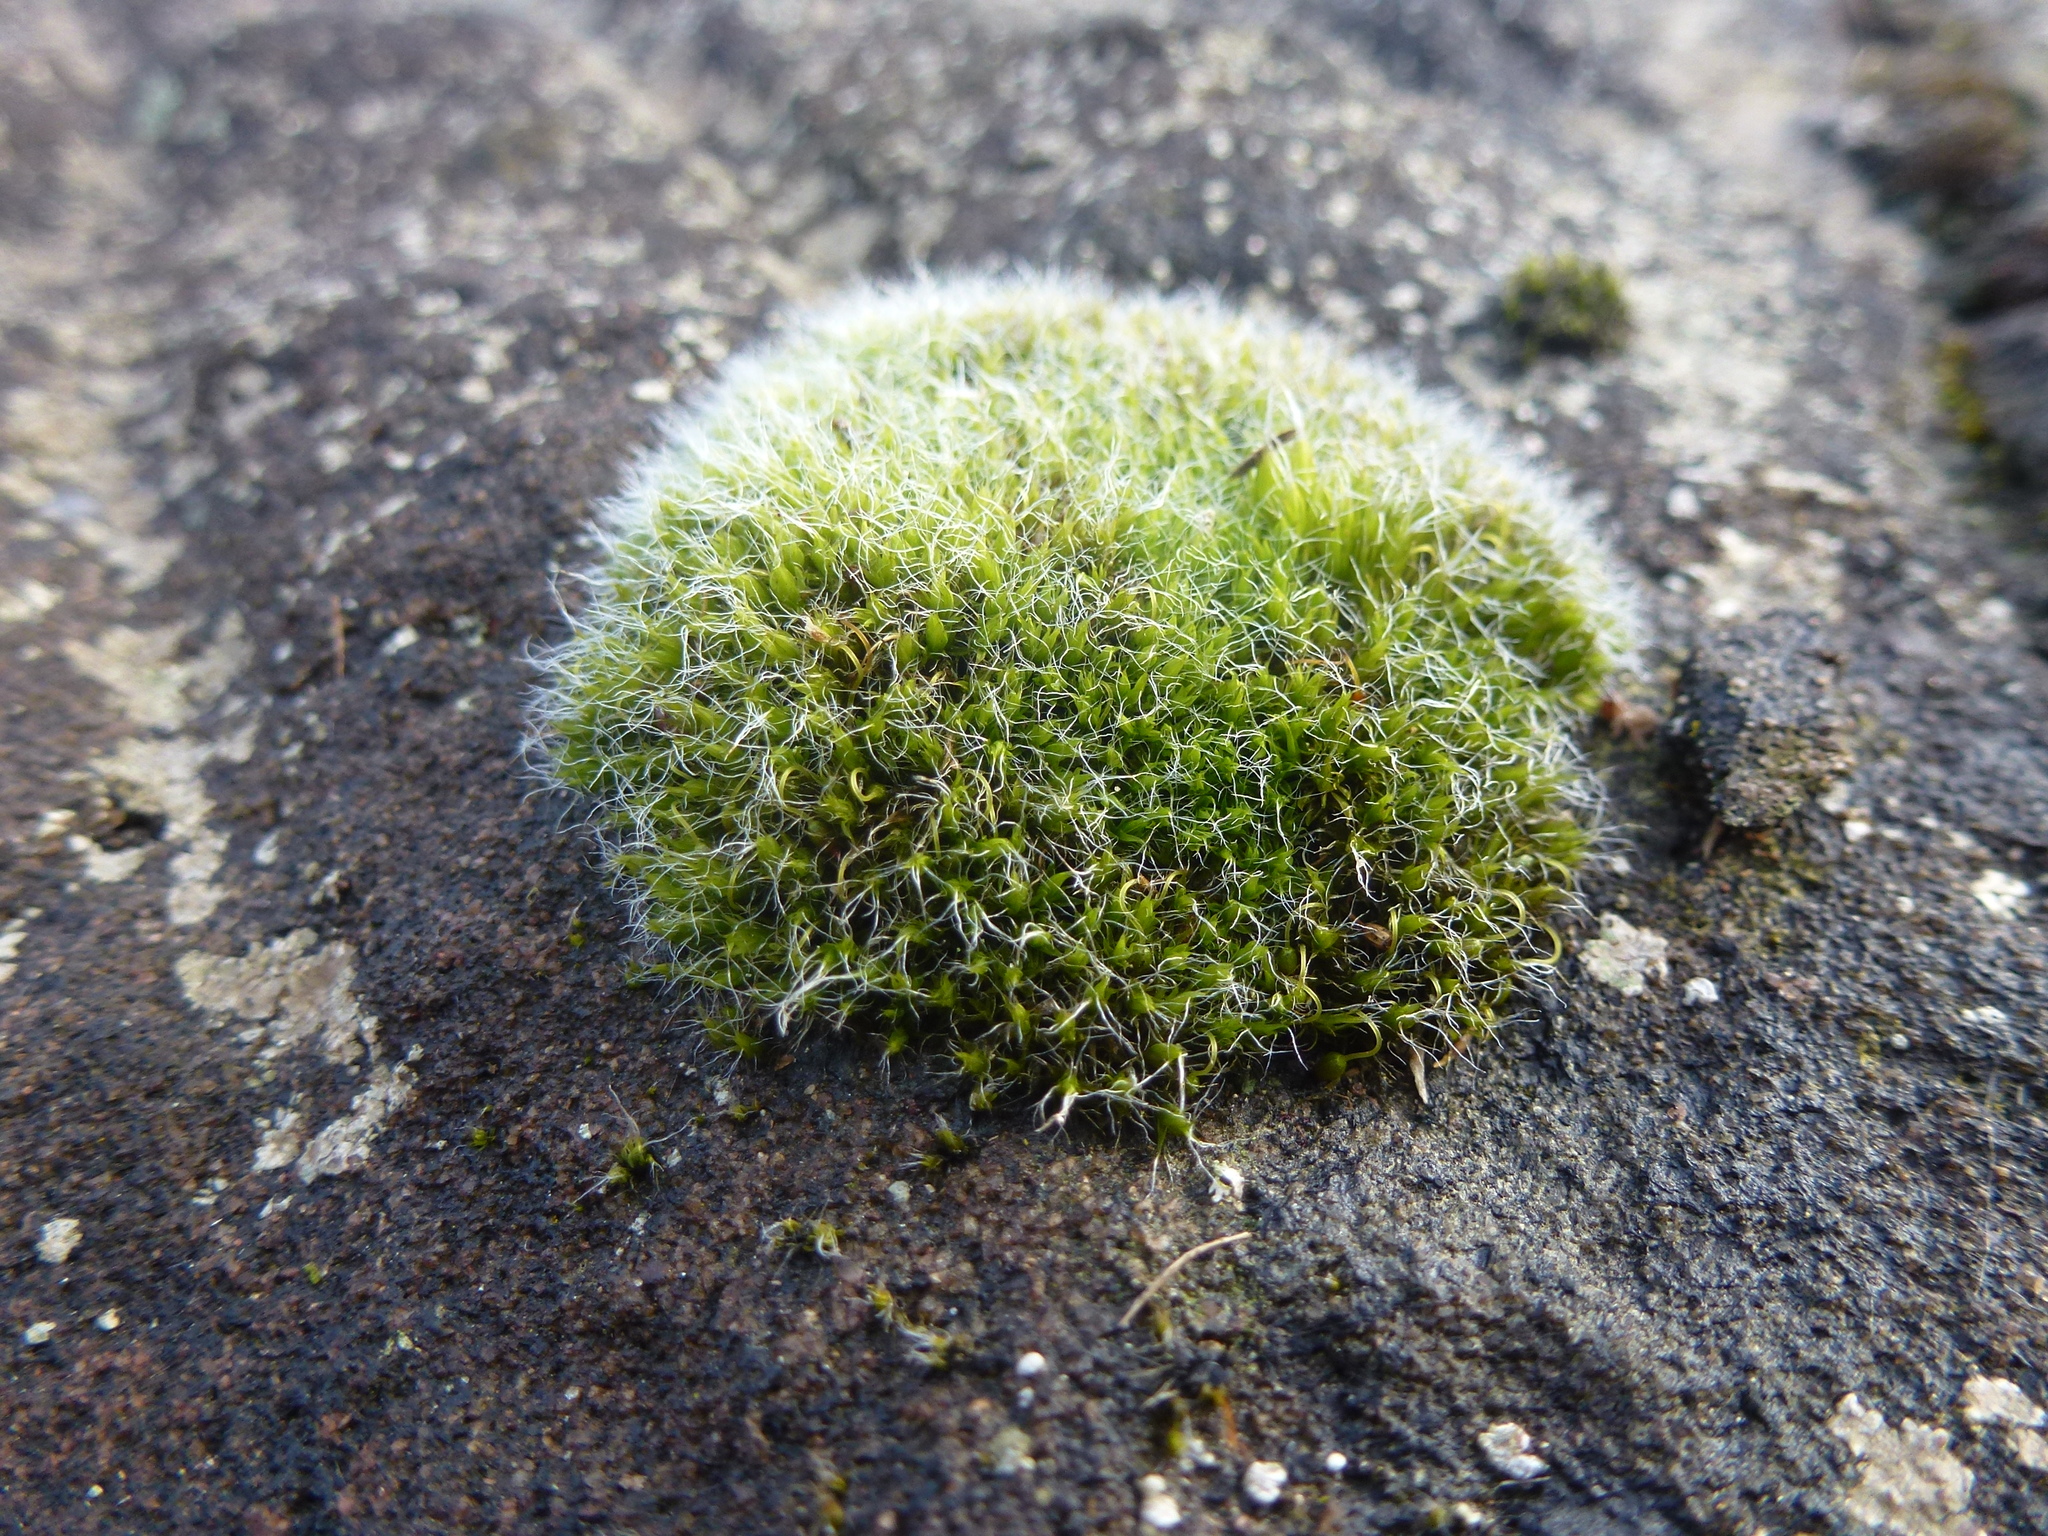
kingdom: Plantae
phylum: Bryophyta
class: Bryopsida
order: Grimmiales
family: Grimmiaceae
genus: Grimmia
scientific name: Grimmia pulvinata
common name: Grey-cushioned grimmia
